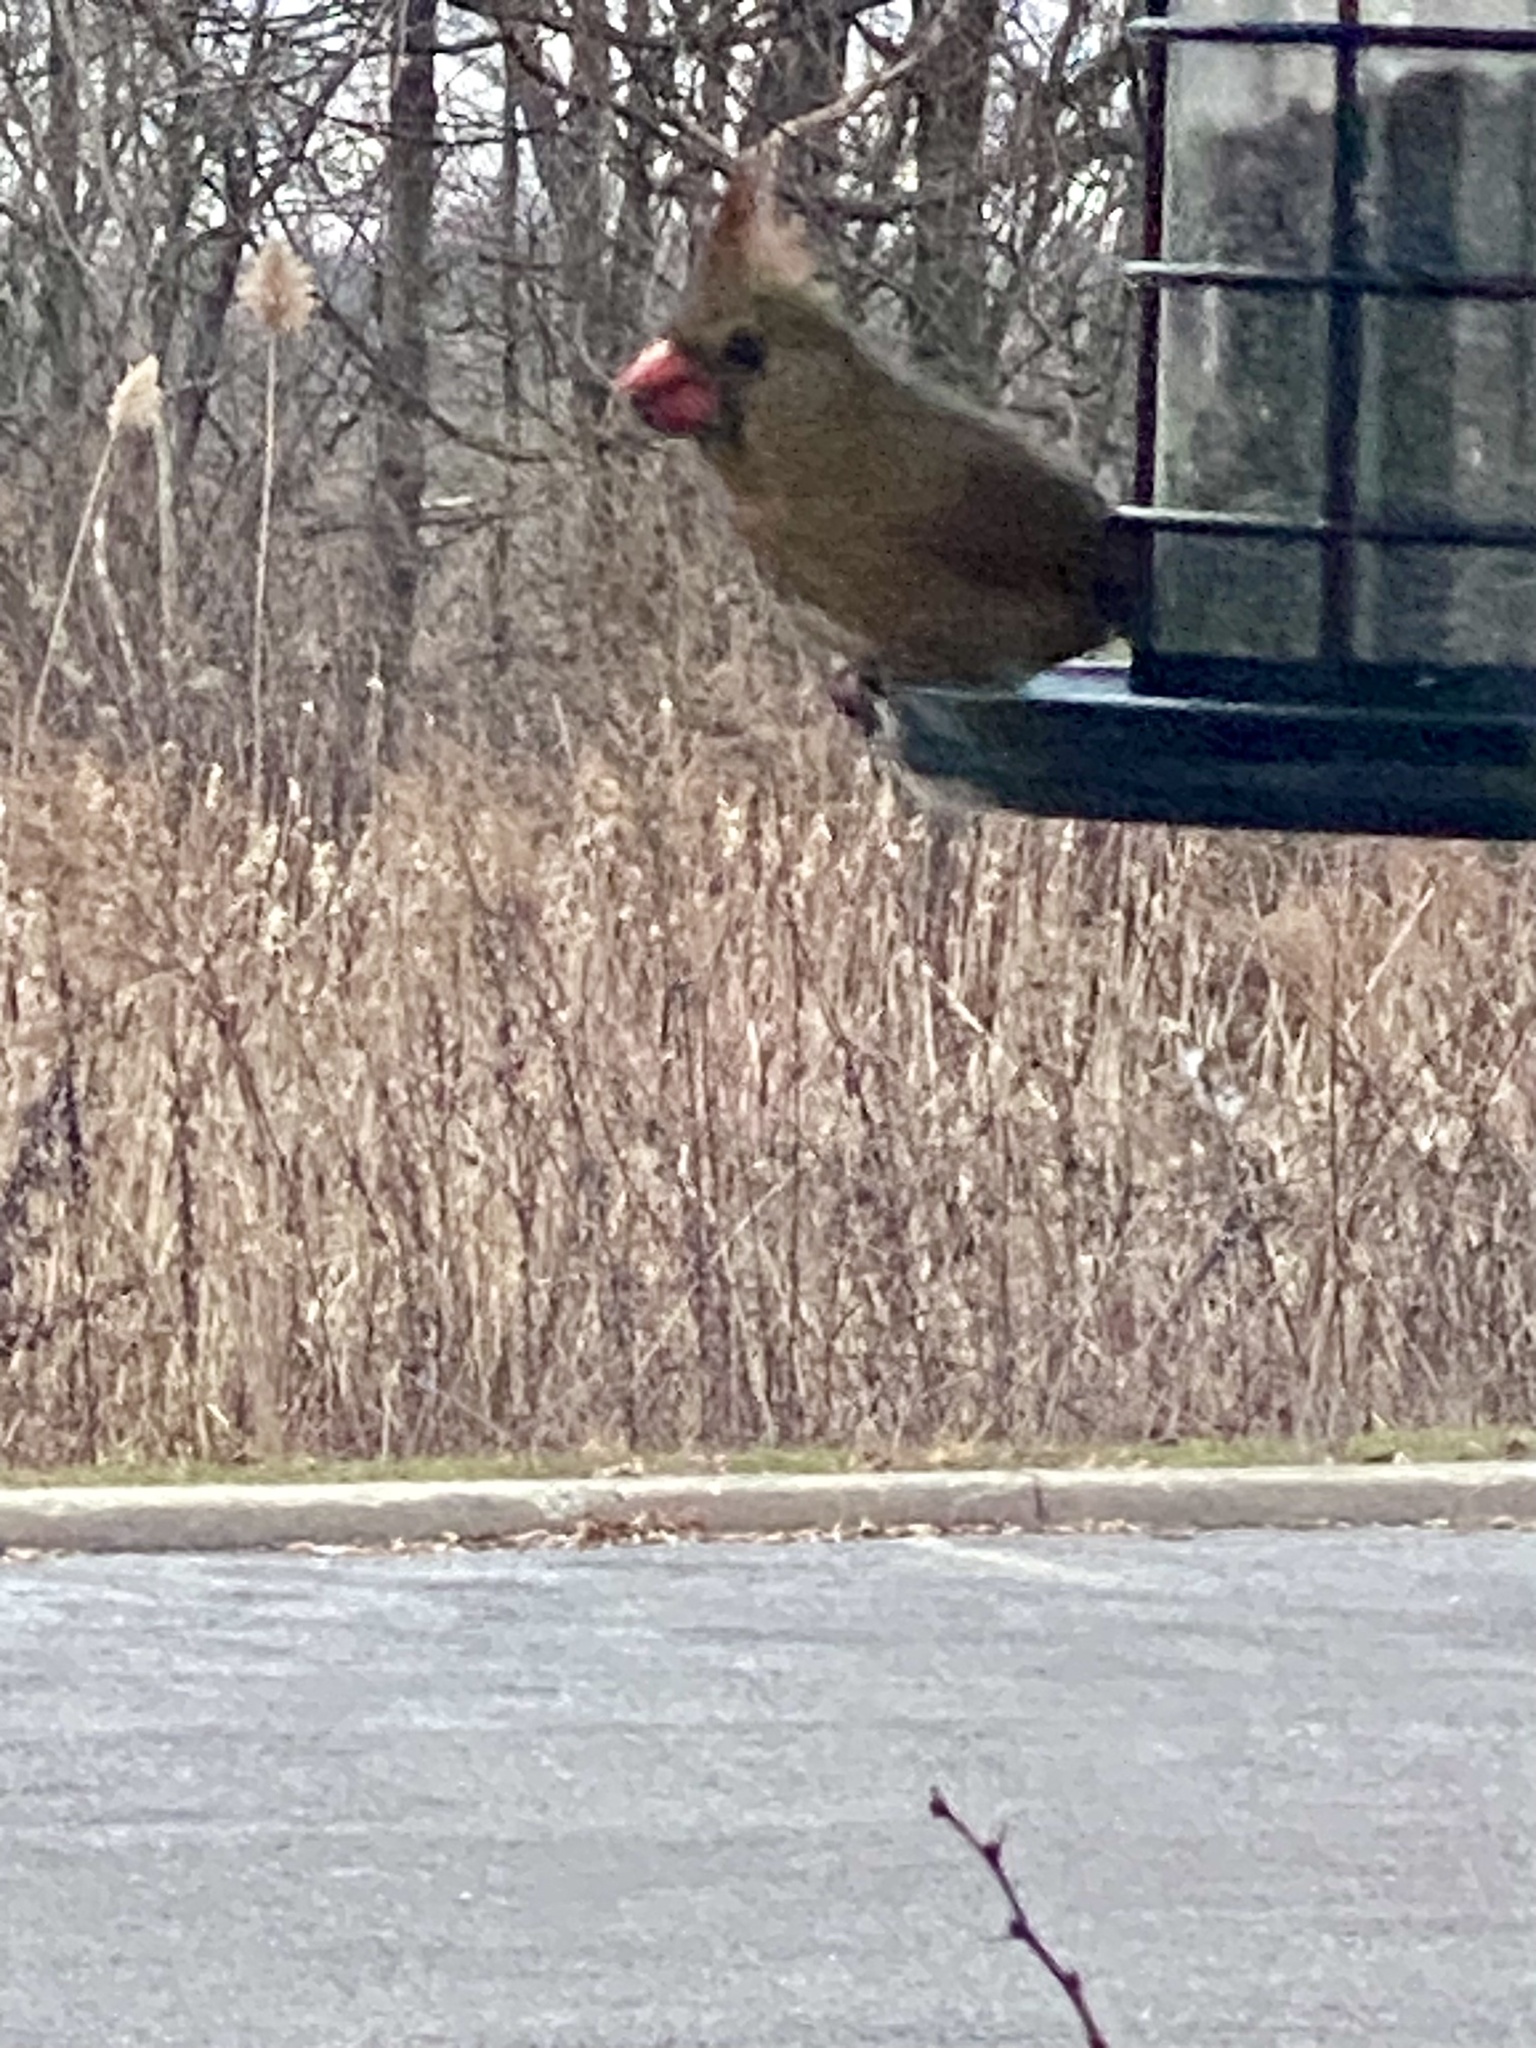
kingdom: Animalia
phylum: Chordata
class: Aves
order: Passeriformes
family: Cardinalidae
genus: Cardinalis
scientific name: Cardinalis cardinalis
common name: Northern cardinal
